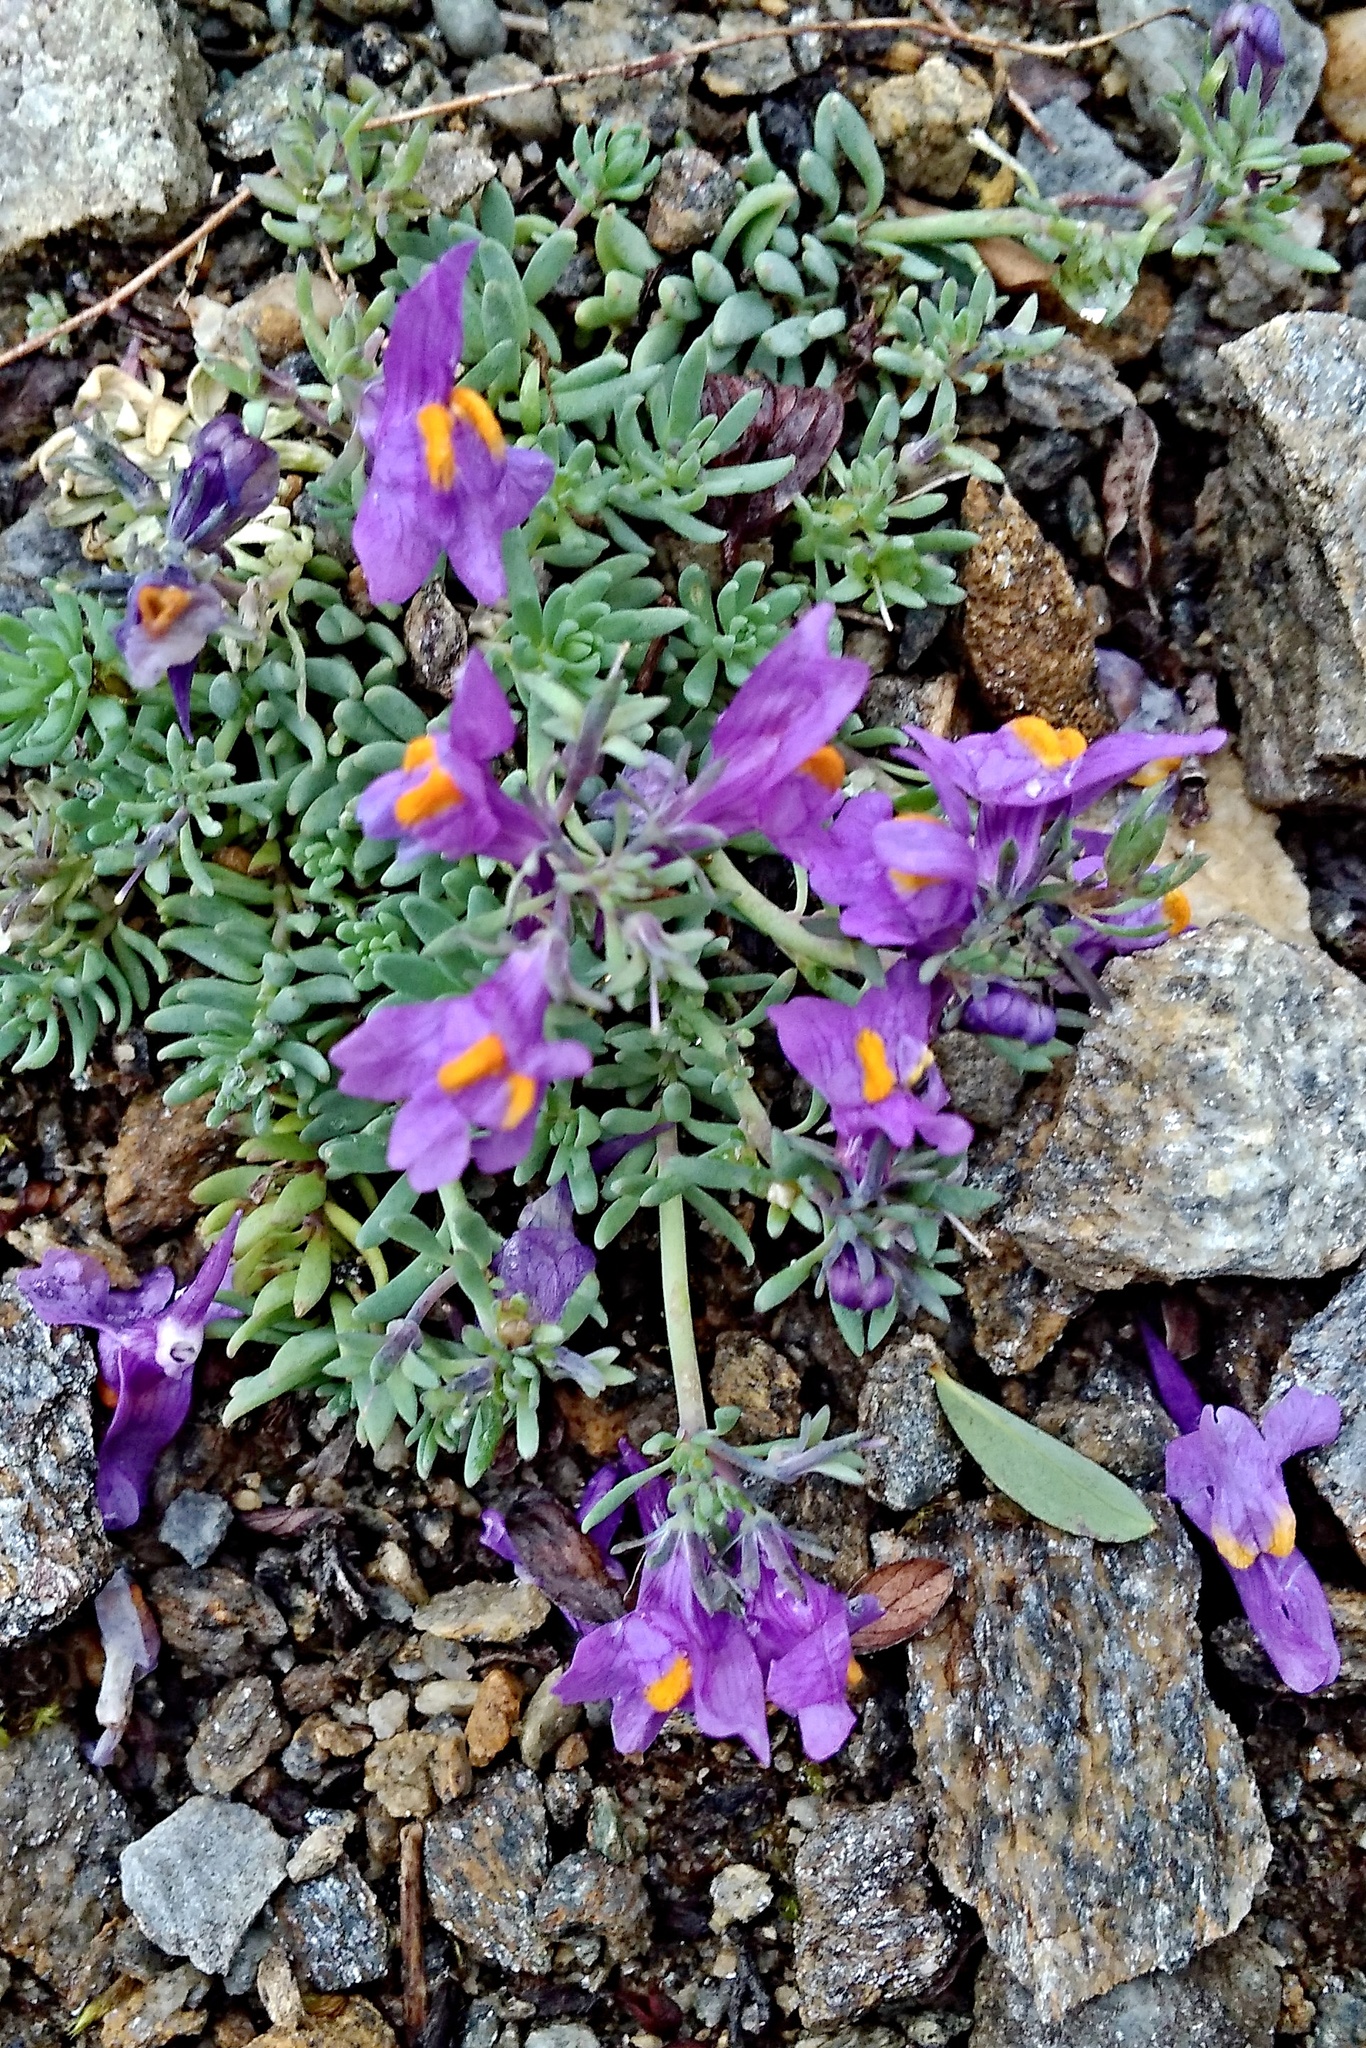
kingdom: Plantae
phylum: Tracheophyta
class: Magnoliopsida
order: Lamiales
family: Plantaginaceae
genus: Linaria
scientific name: Linaria alpina
